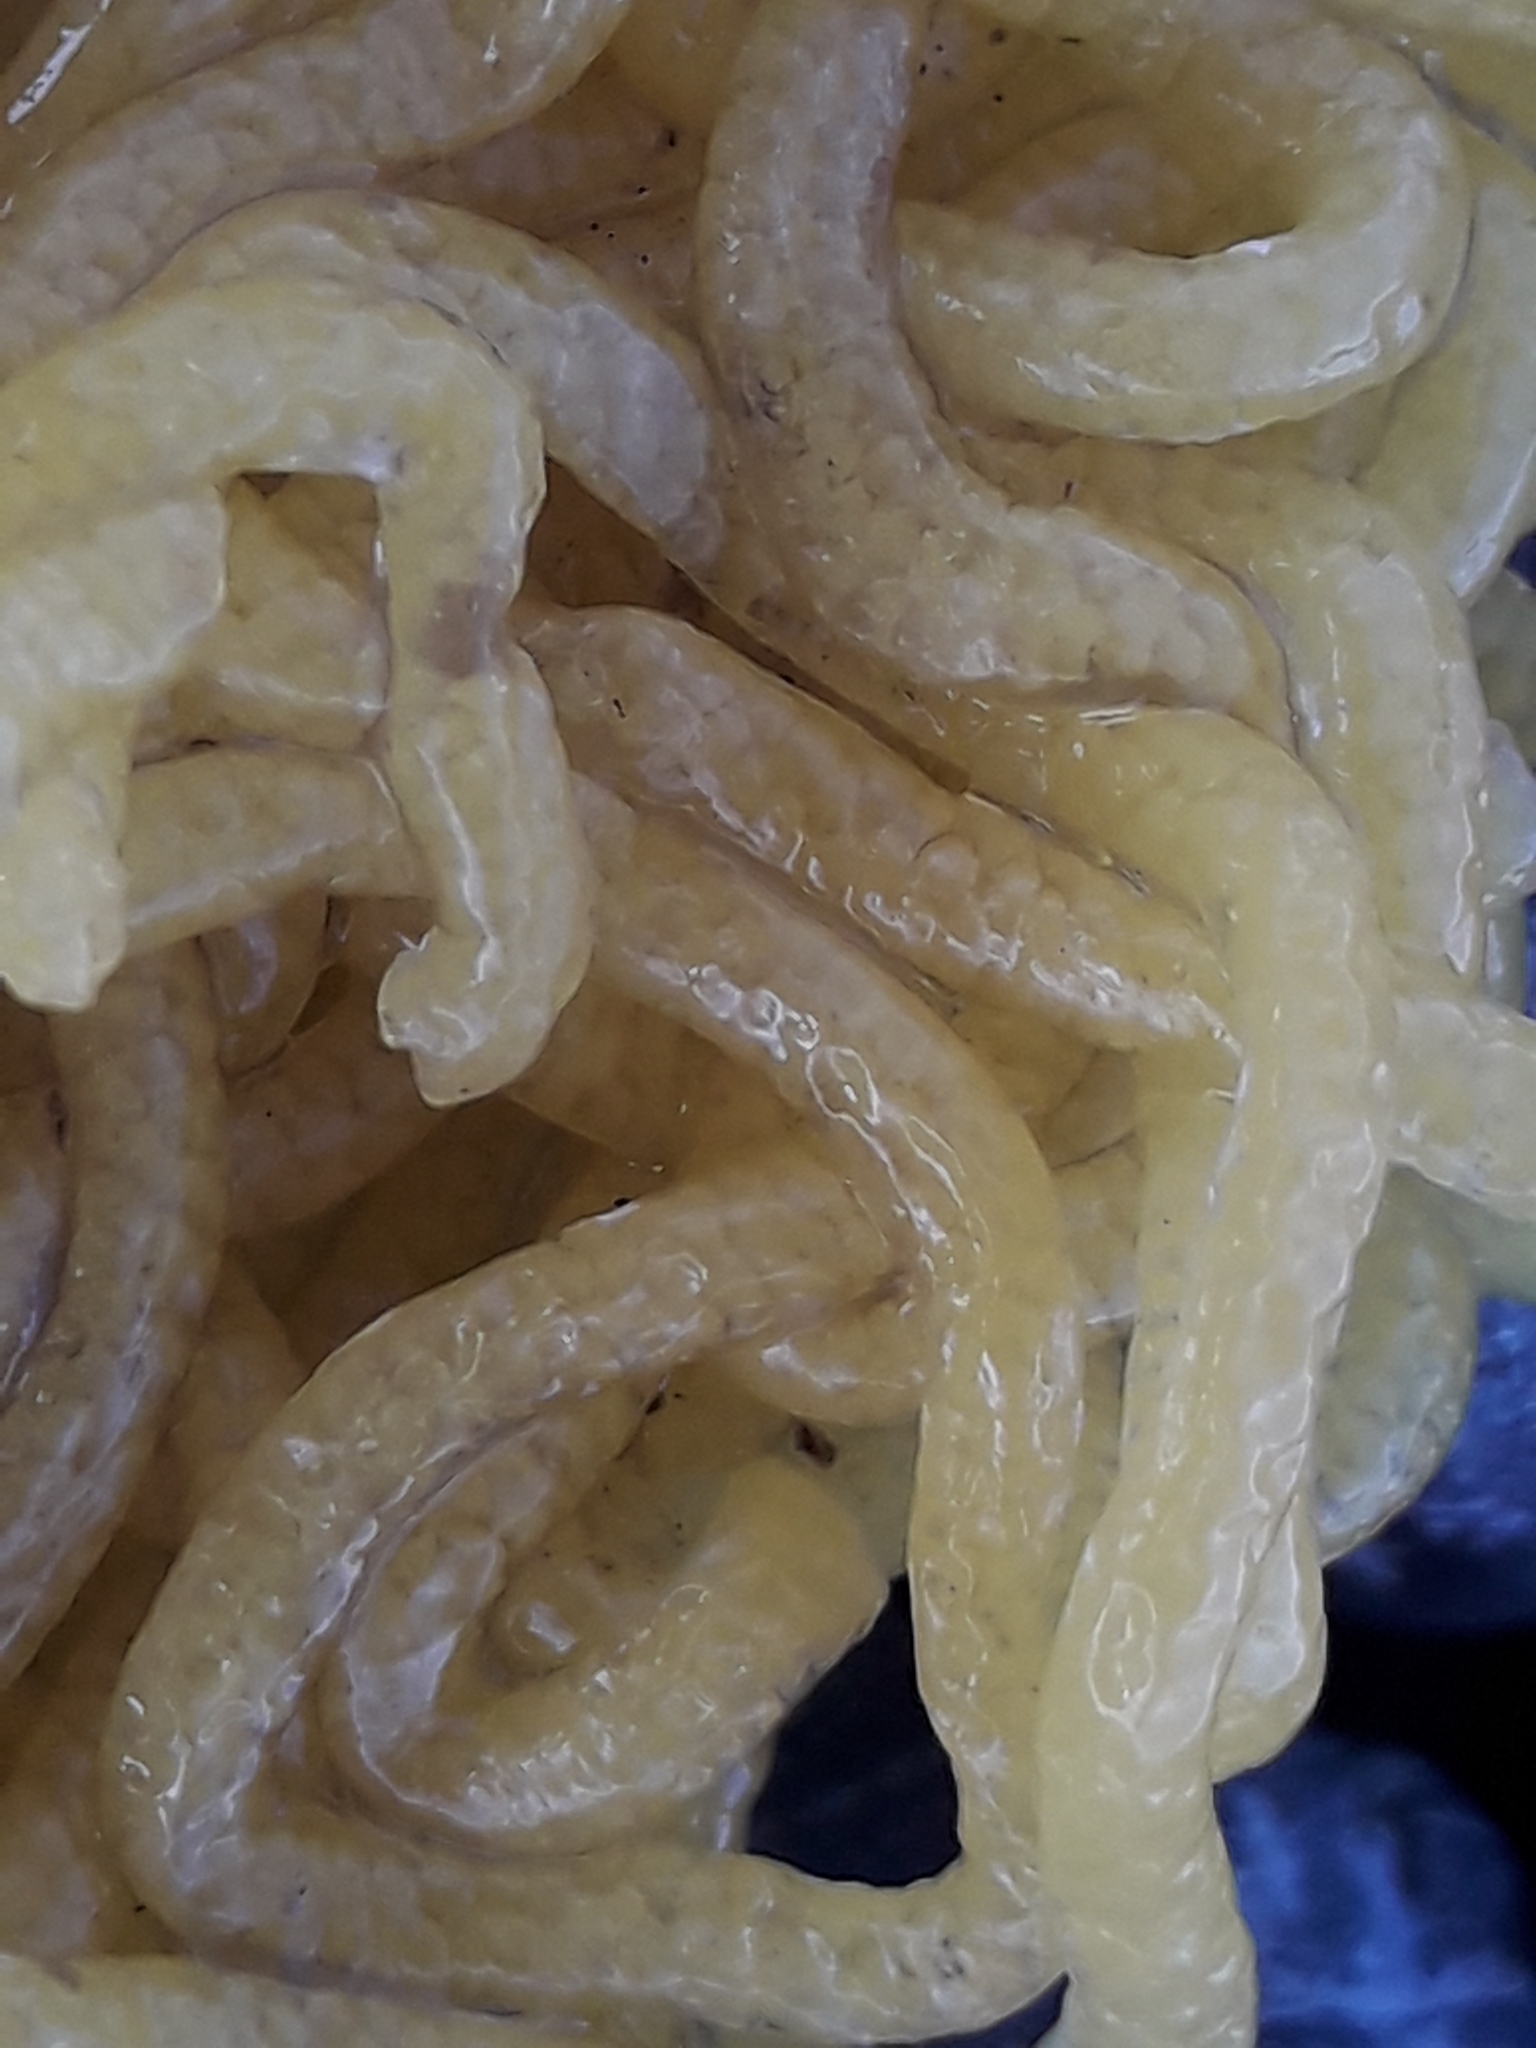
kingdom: Animalia
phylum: Mollusca
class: Gastropoda
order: Aplysiida
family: Aplysiidae
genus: Aplysia
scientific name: Aplysia
